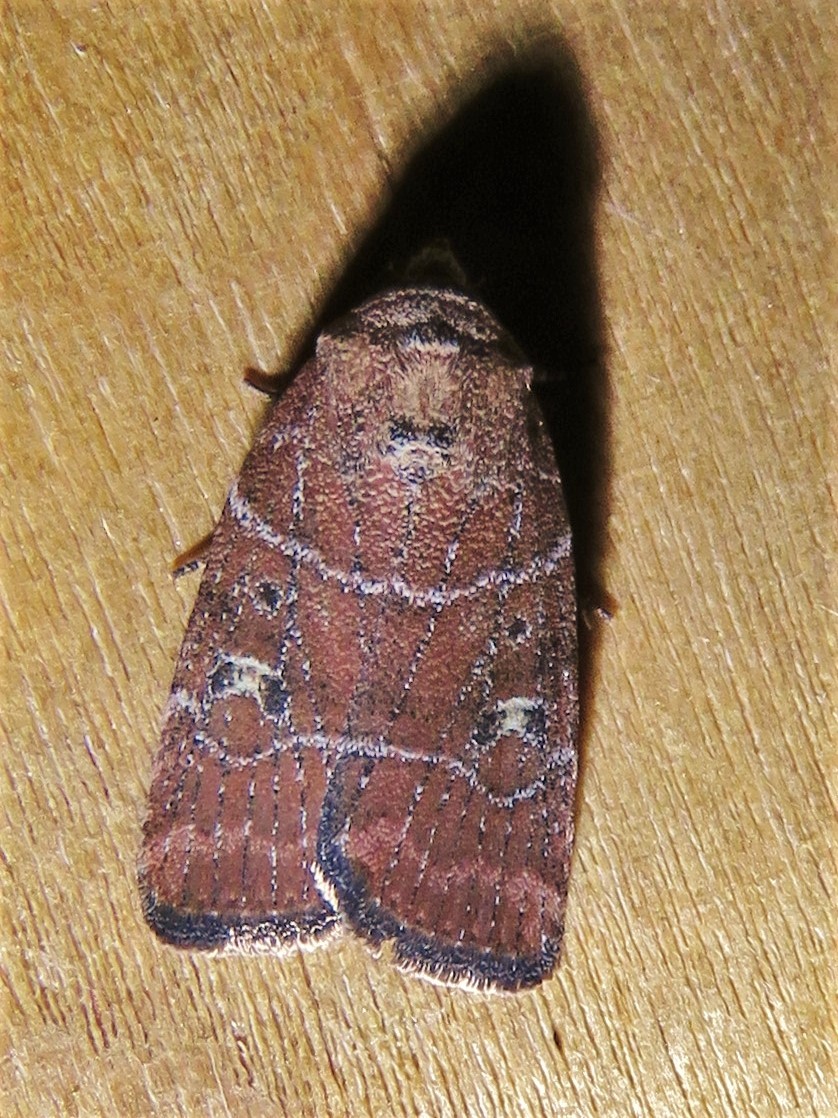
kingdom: Animalia
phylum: Arthropoda
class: Insecta
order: Lepidoptera
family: Noctuidae
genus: Elaphria
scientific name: Elaphria grata
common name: Grateful midget moth
